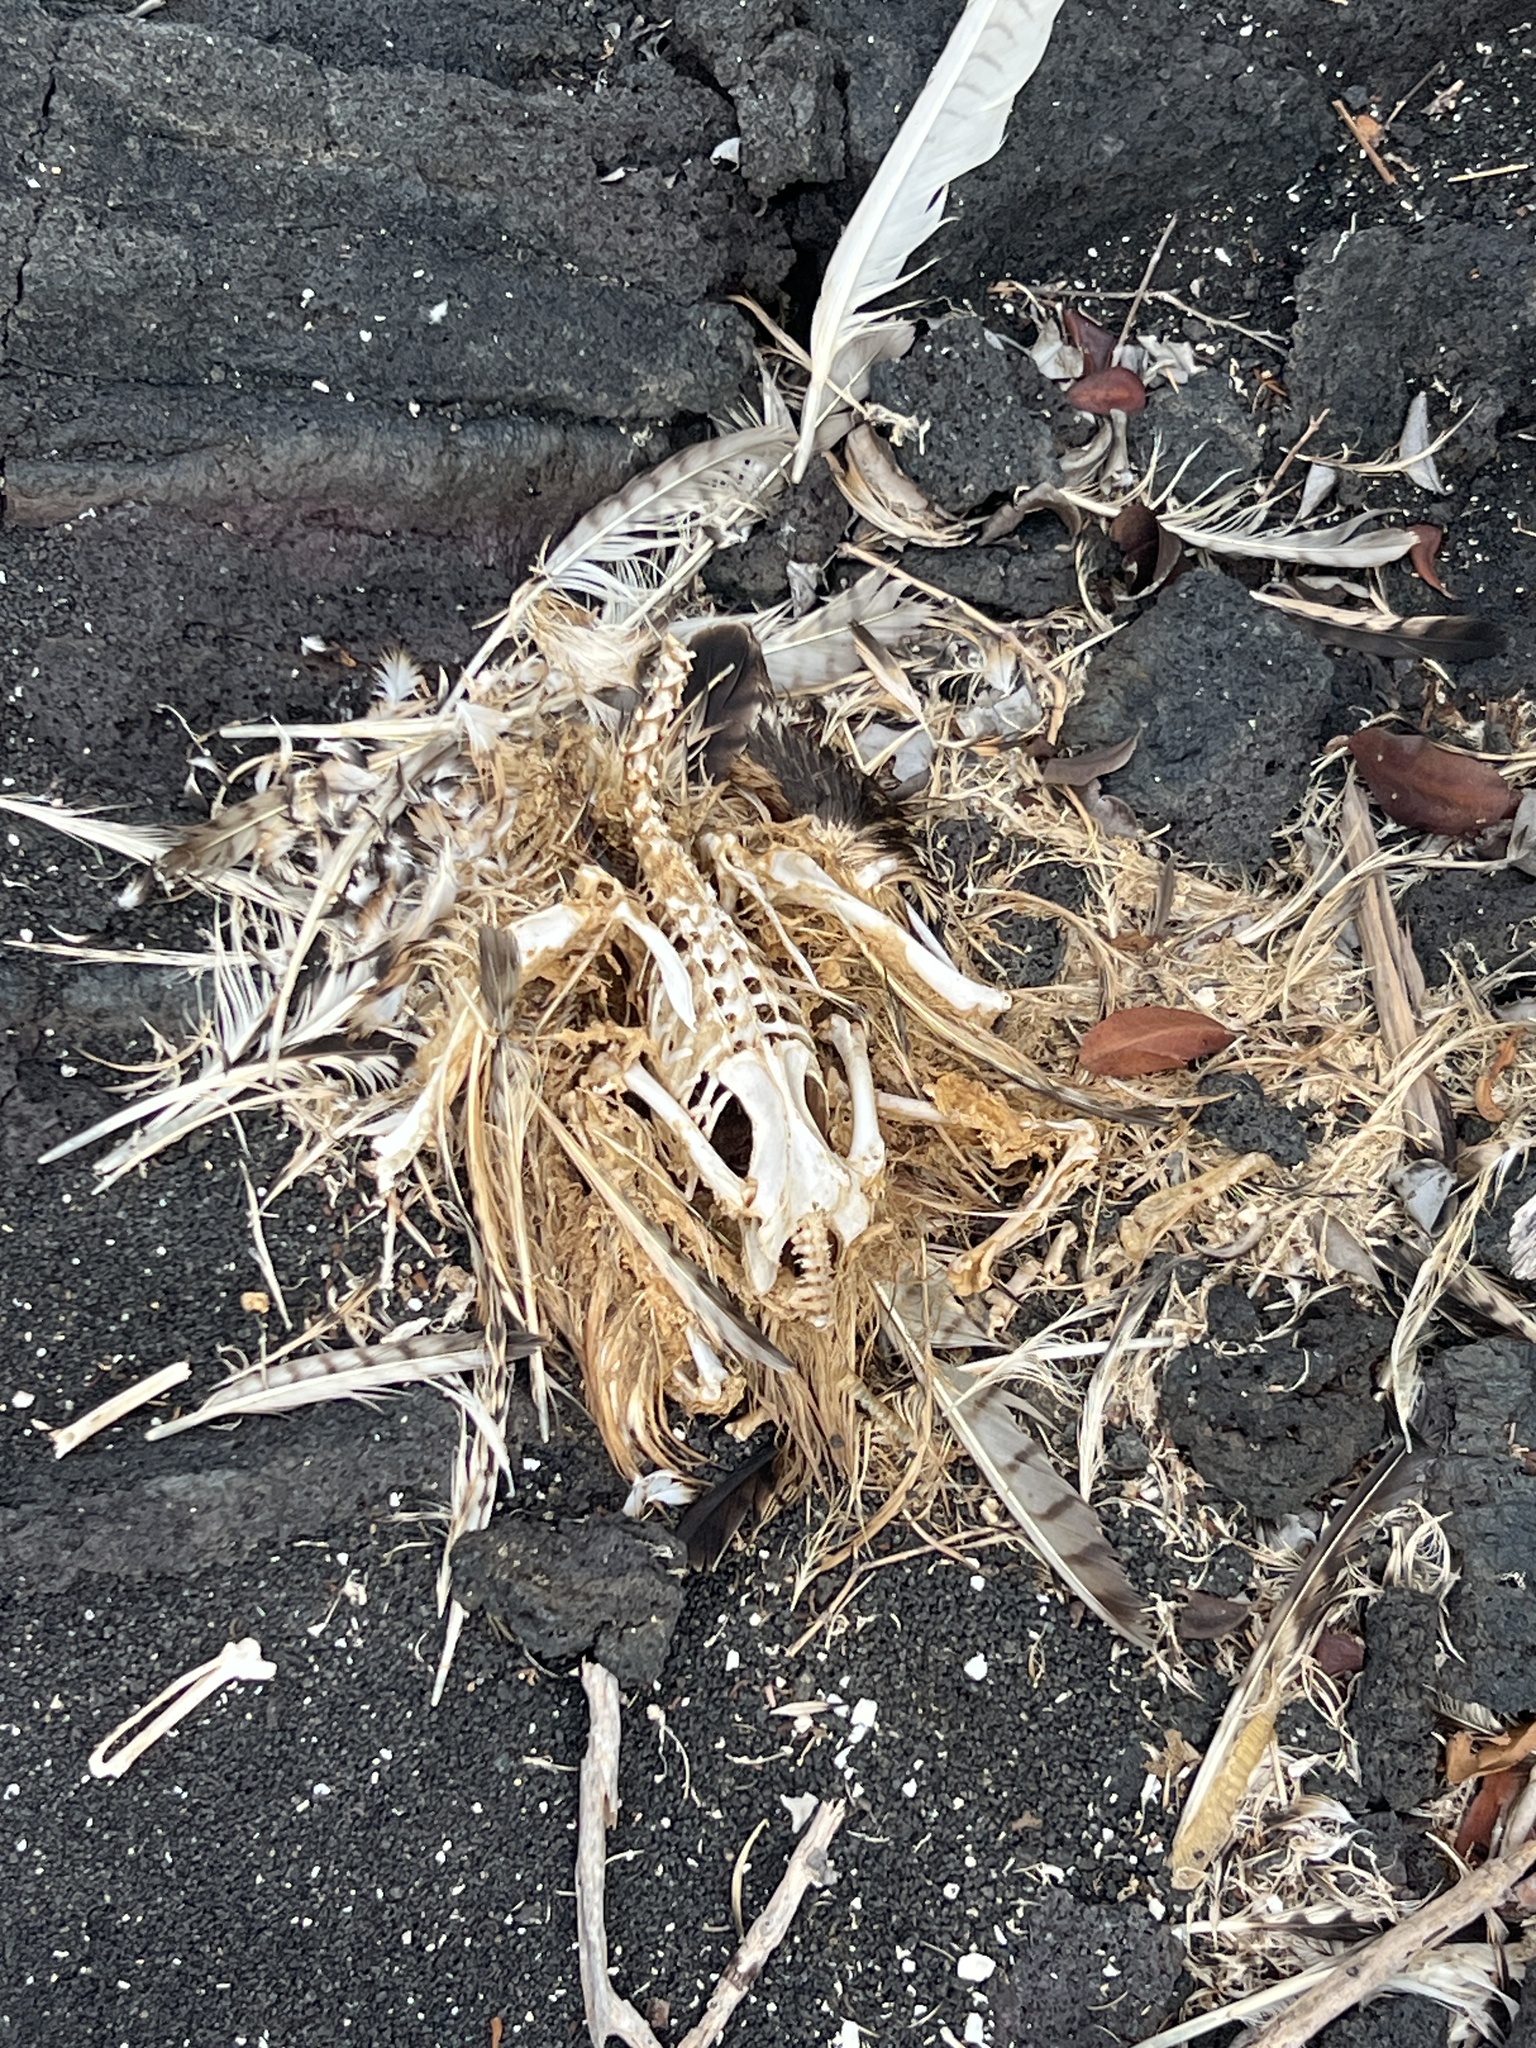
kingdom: Animalia
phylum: Chordata
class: Aves
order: Accipitriformes
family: Accipitridae
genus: Buteo
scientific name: Buteo galapagoensis
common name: Galapagos hawk
